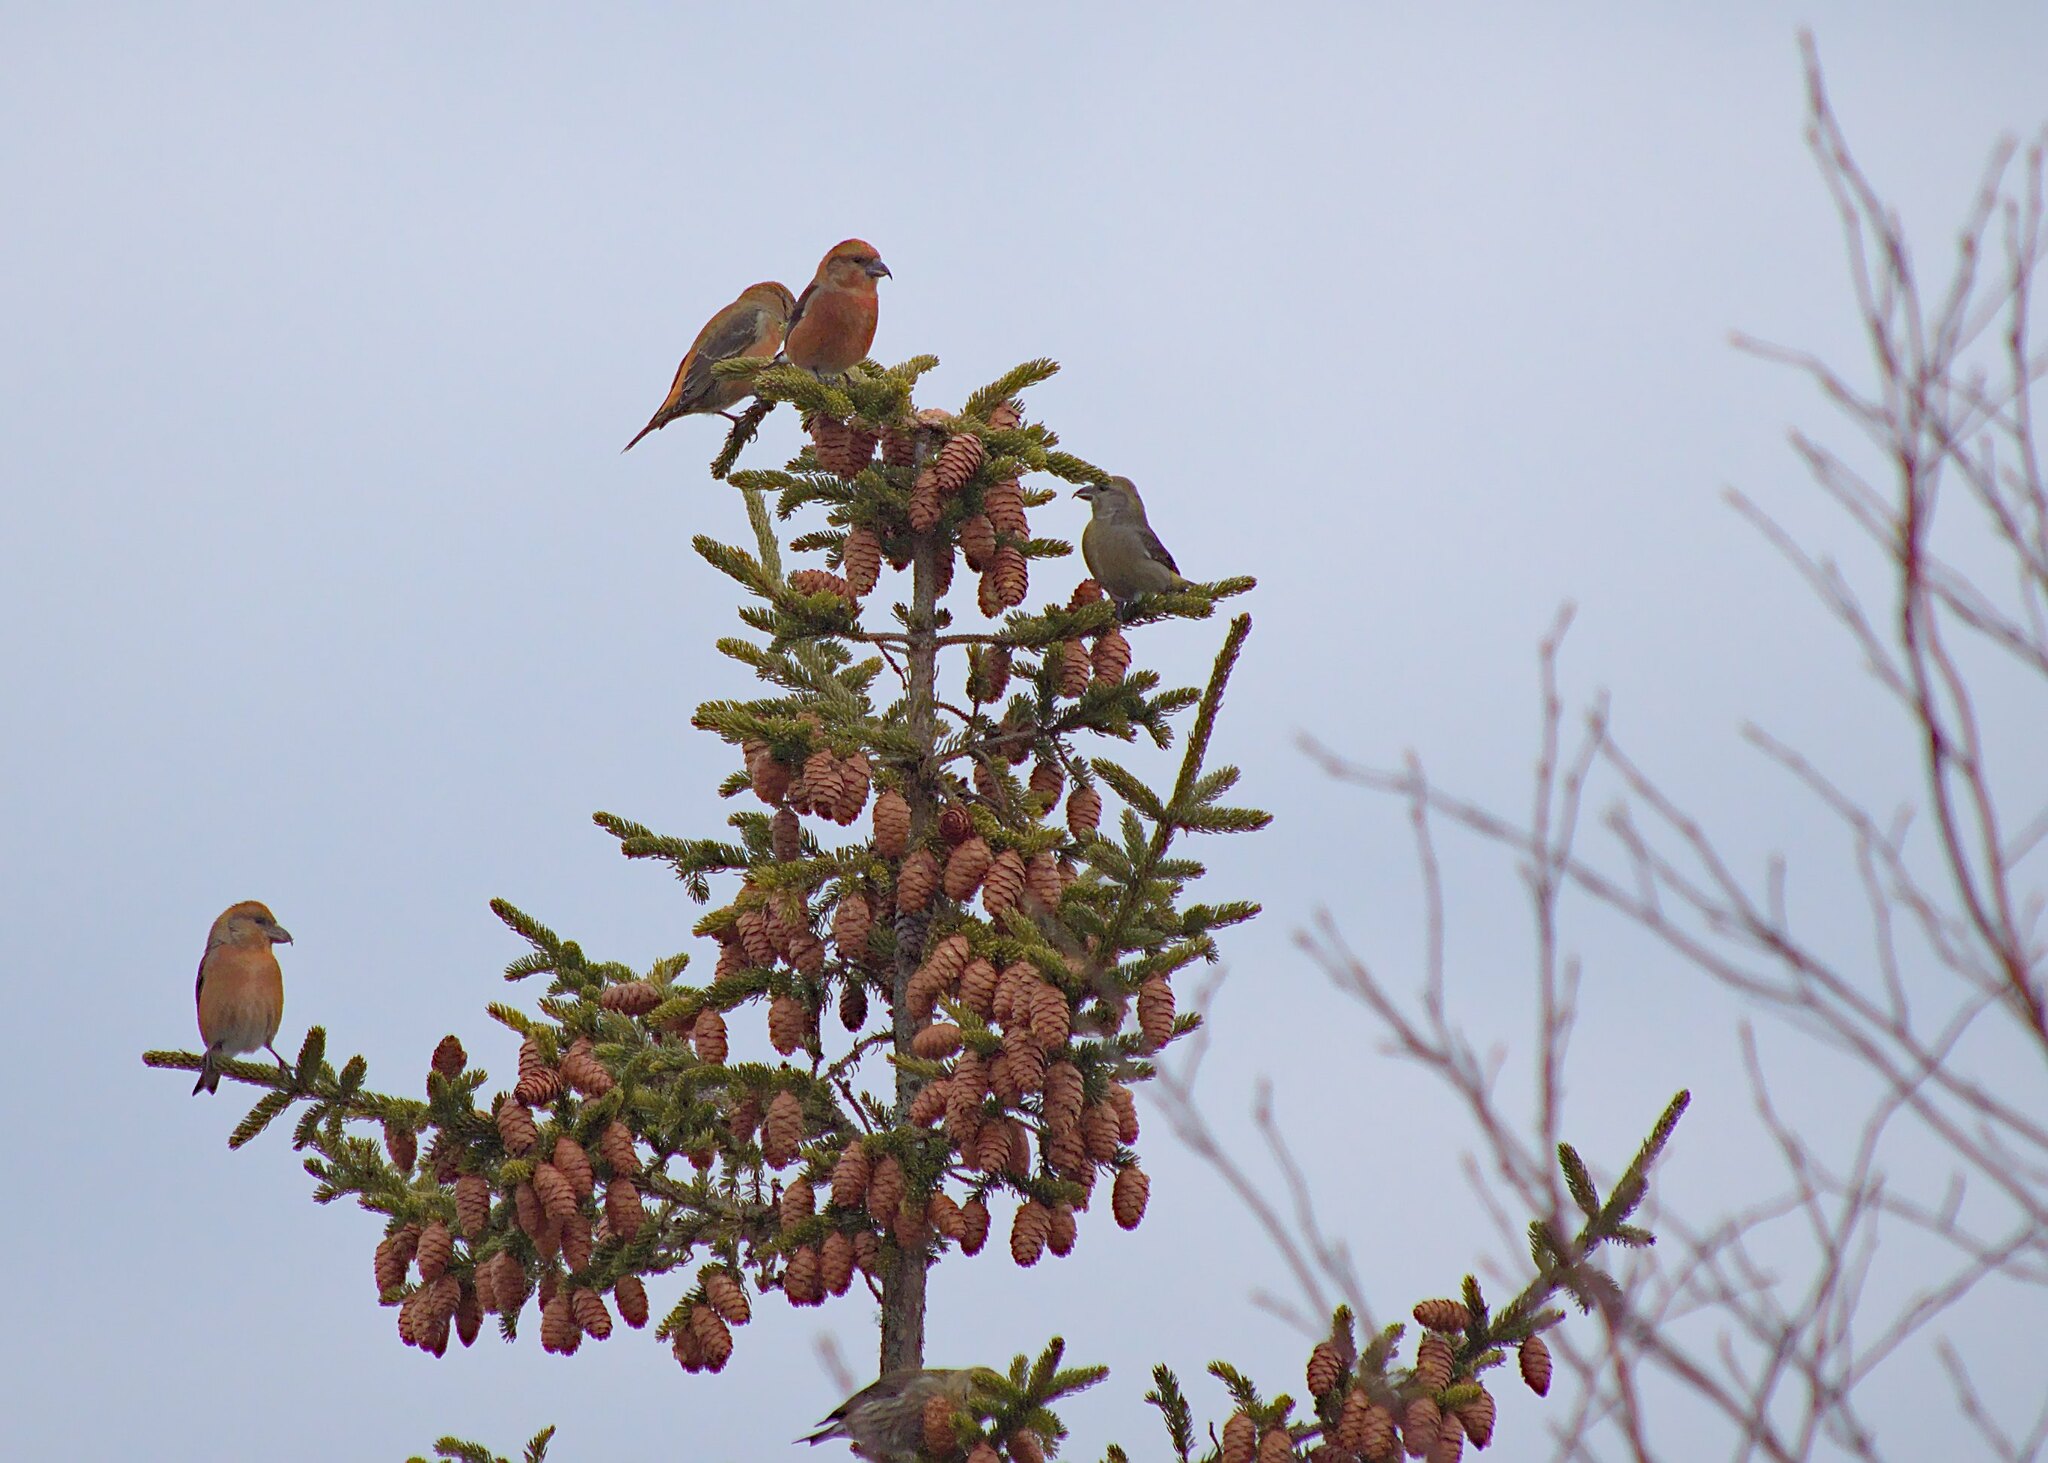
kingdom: Animalia
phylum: Chordata
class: Aves
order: Passeriformes
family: Fringillidae
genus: Loxia
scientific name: Loxia curvirostra
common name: Red crossbill
